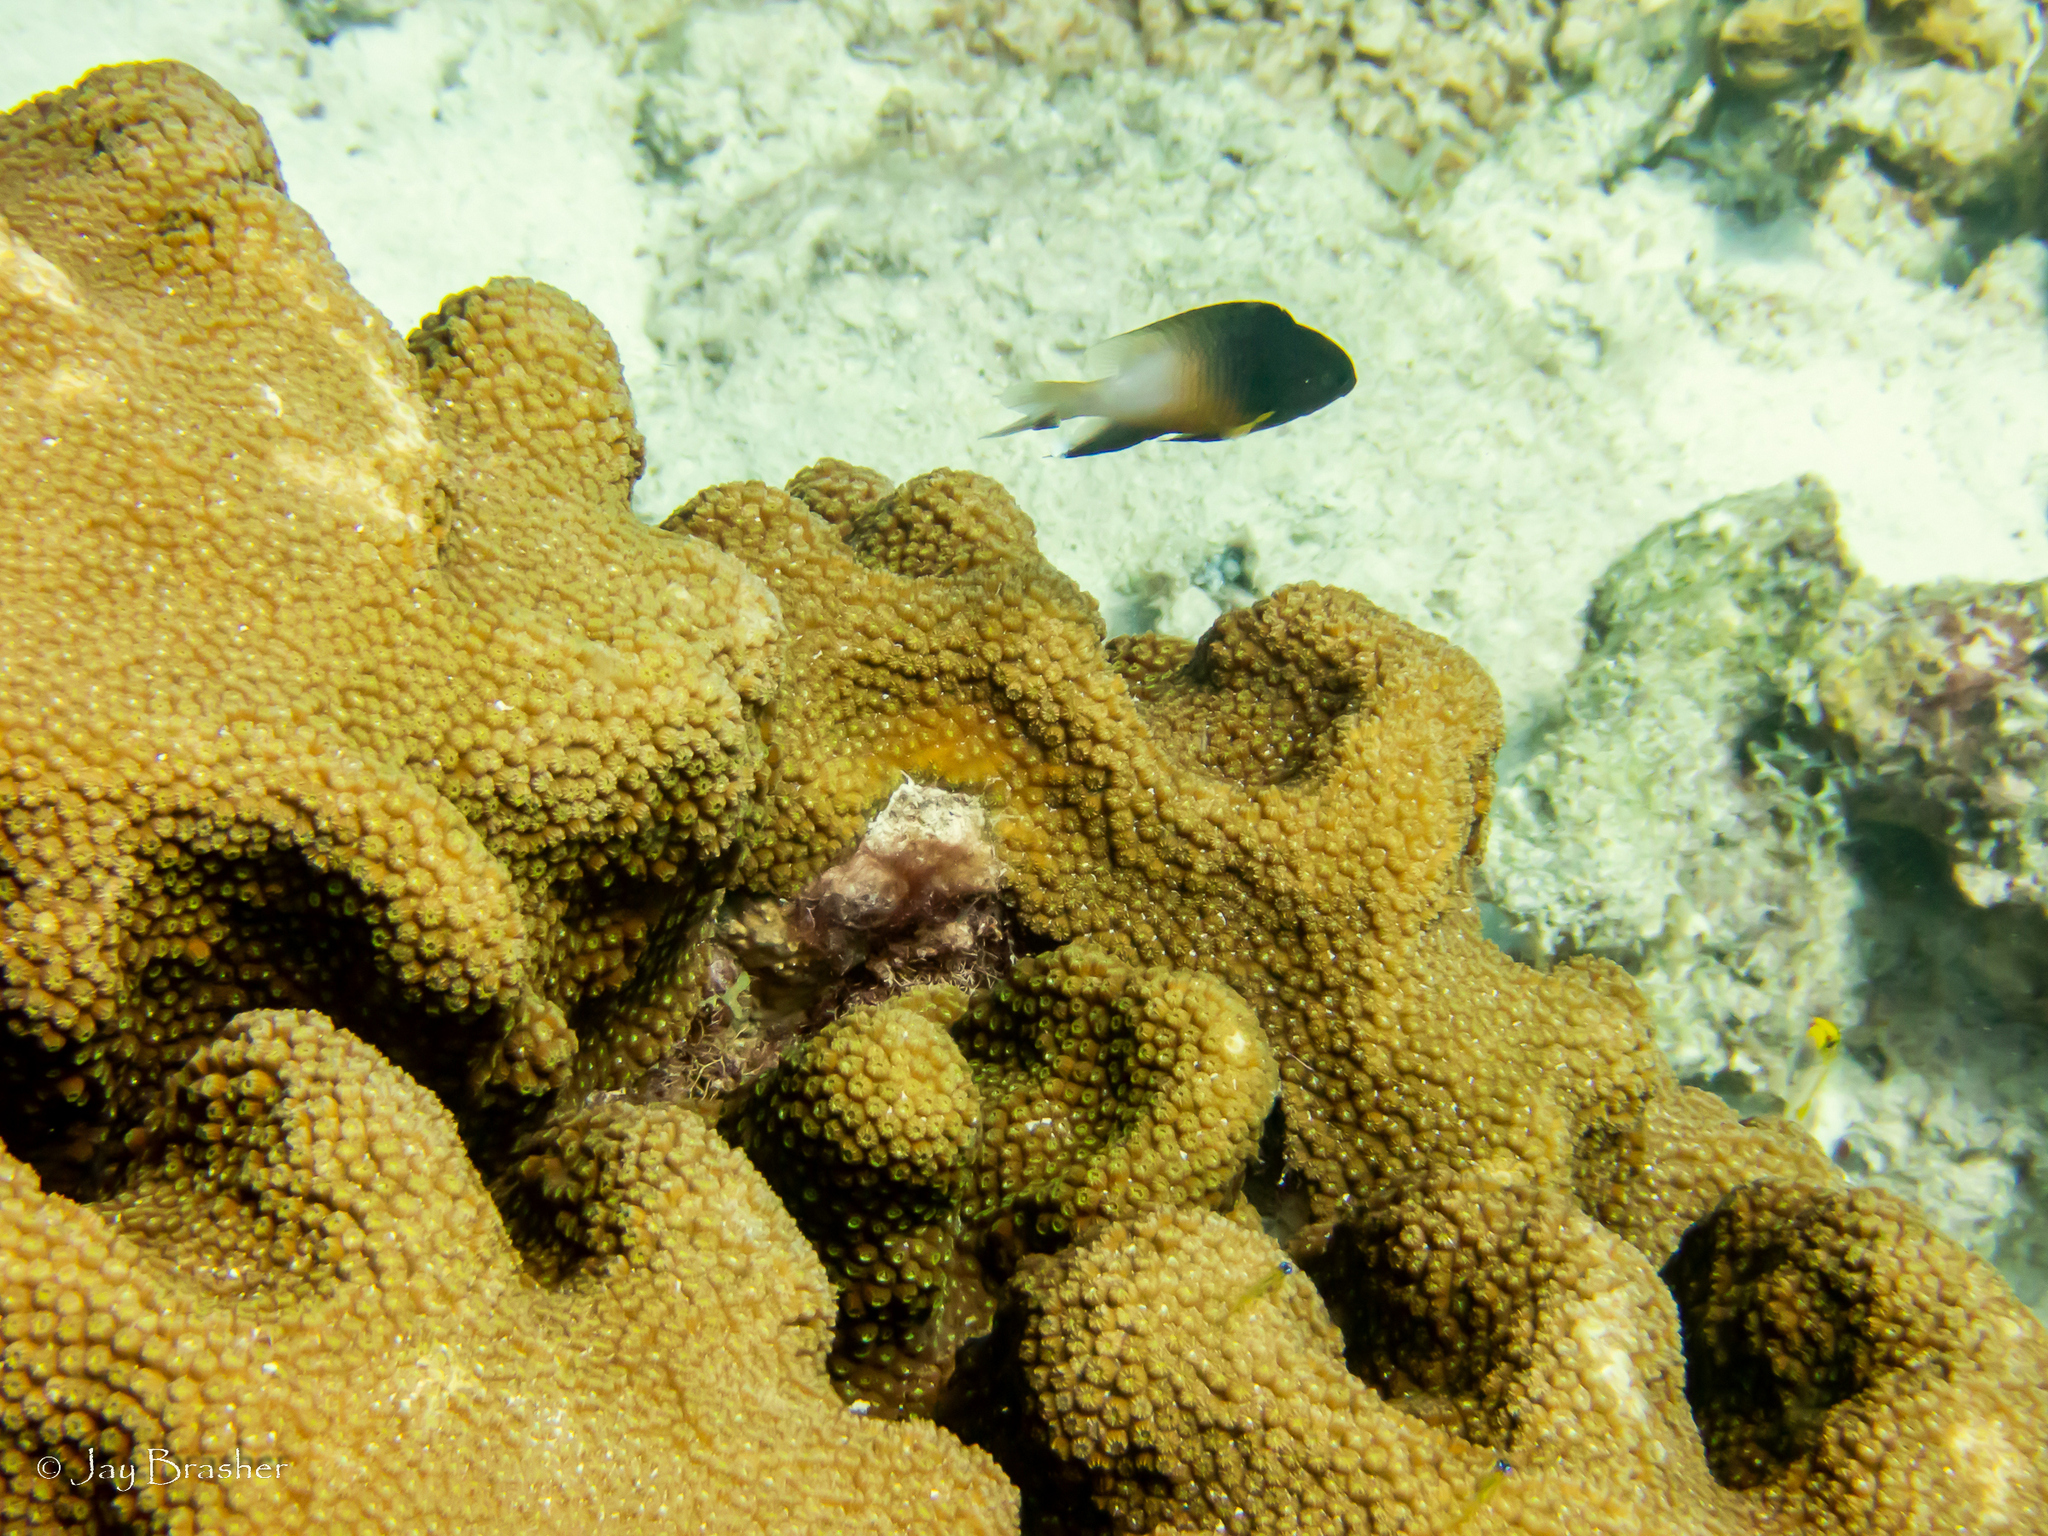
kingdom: Animalia
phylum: Cnidaria
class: Anthozoa
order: Scleractinia
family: Merulinidae
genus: Orbicella
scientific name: Orbicella faveolata
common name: Mountainous star coral
